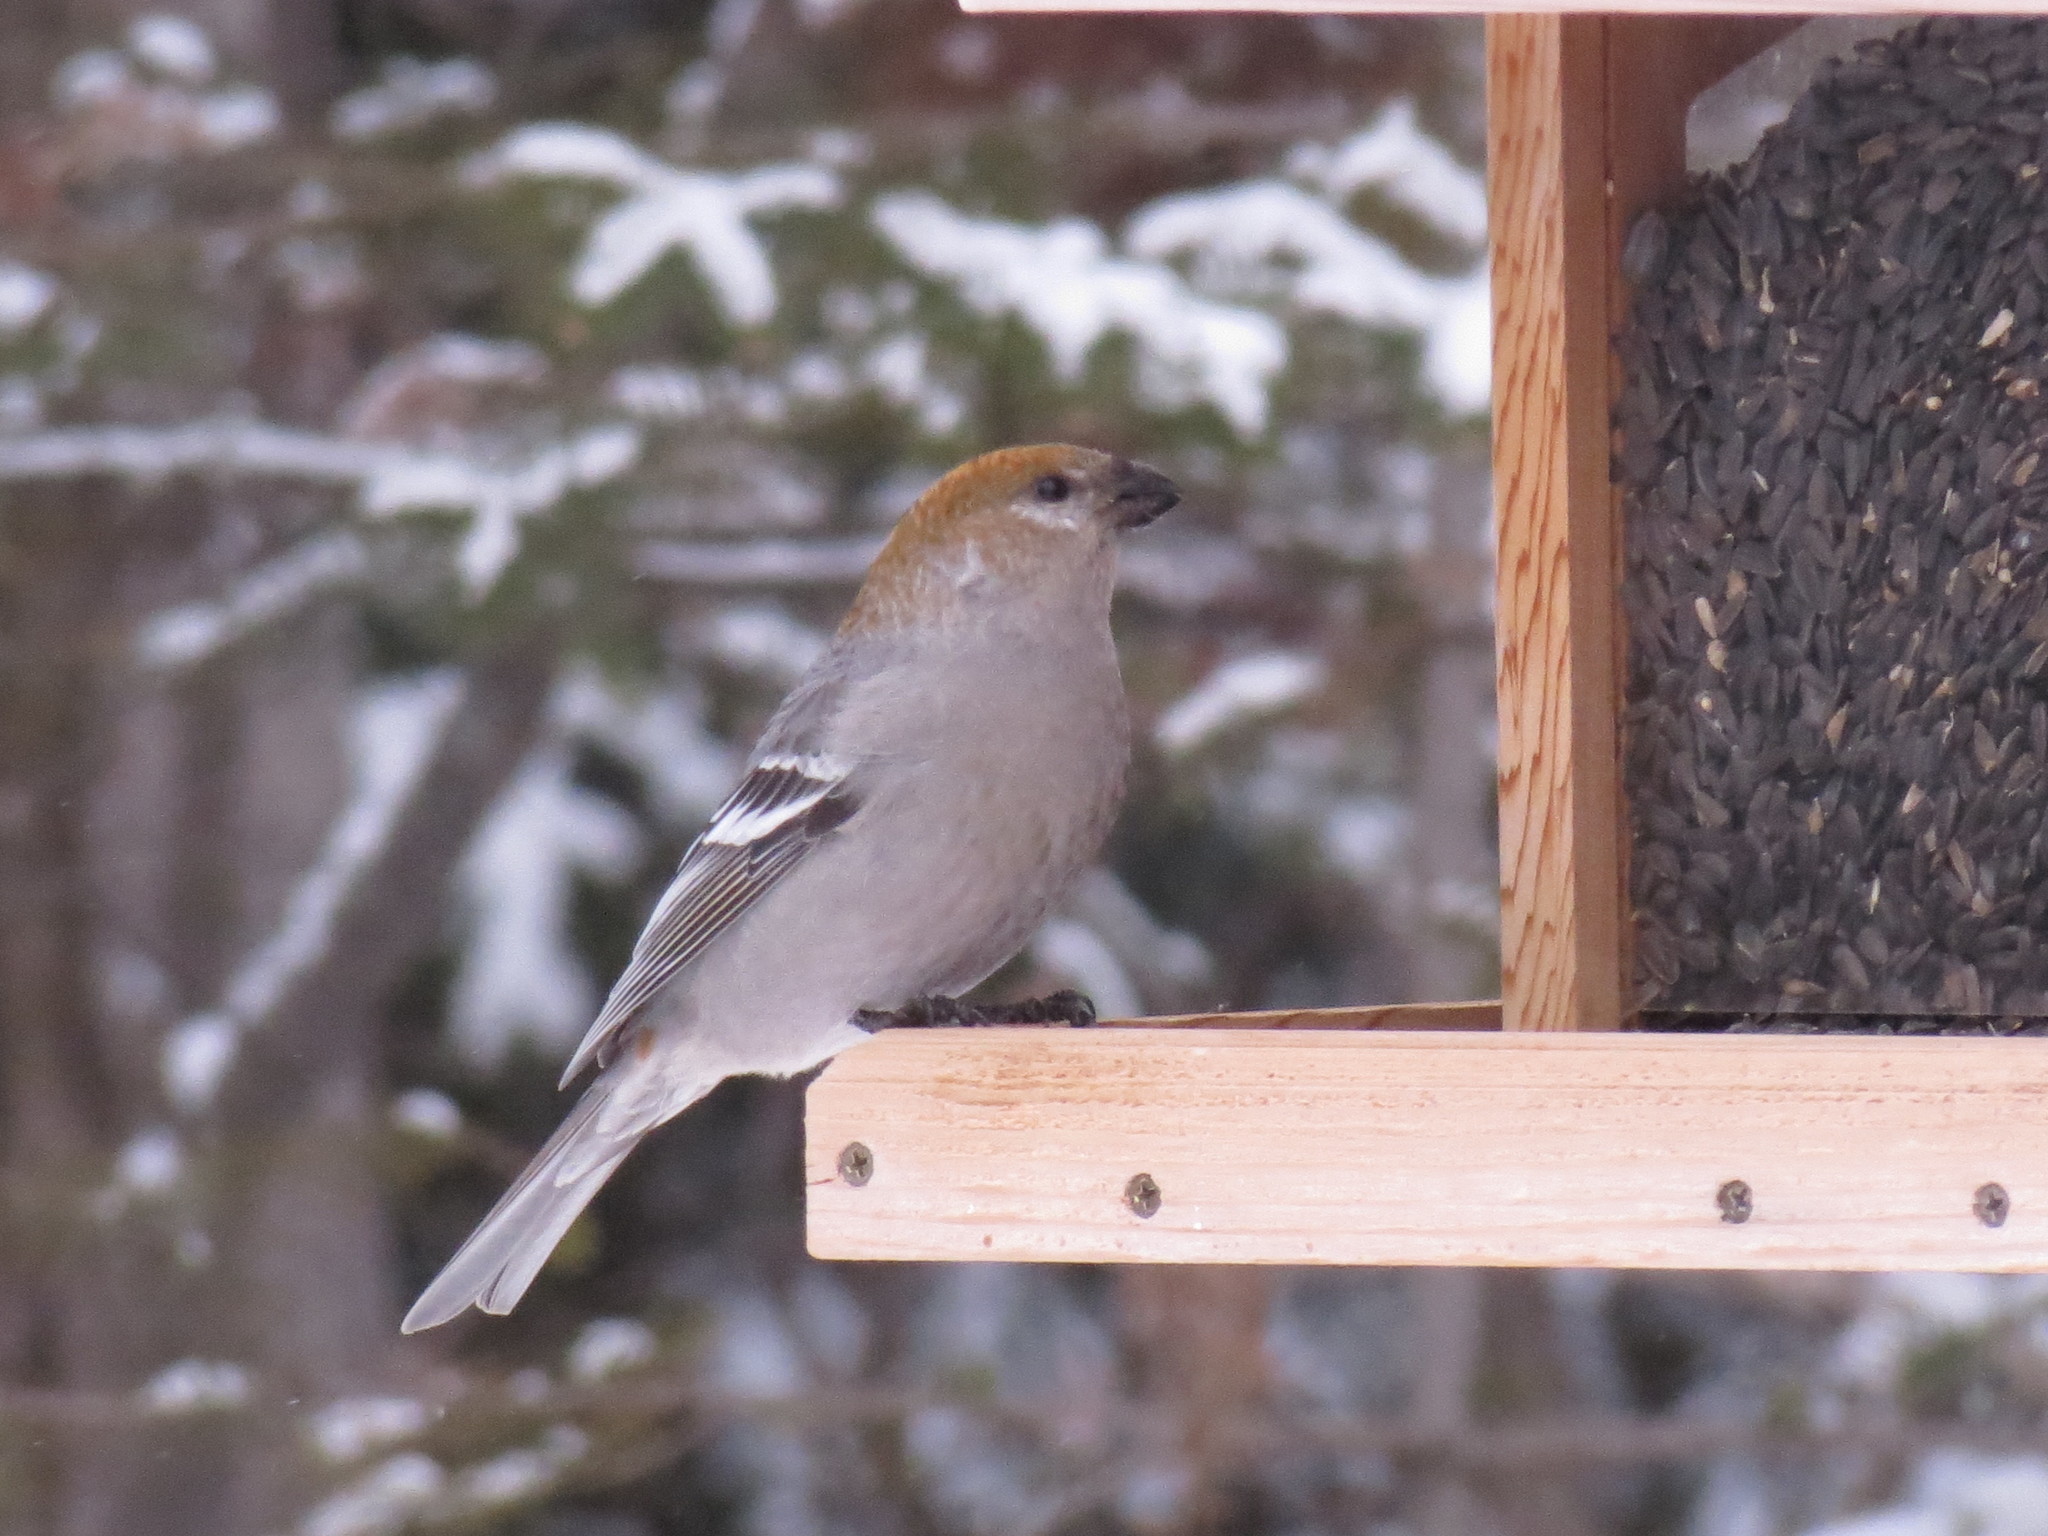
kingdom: Animalia
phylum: Chordata
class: Aves
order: Passeriformes
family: Fringillidae
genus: Pinicola
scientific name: Pinicola enucleator
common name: Pine grosbeak
